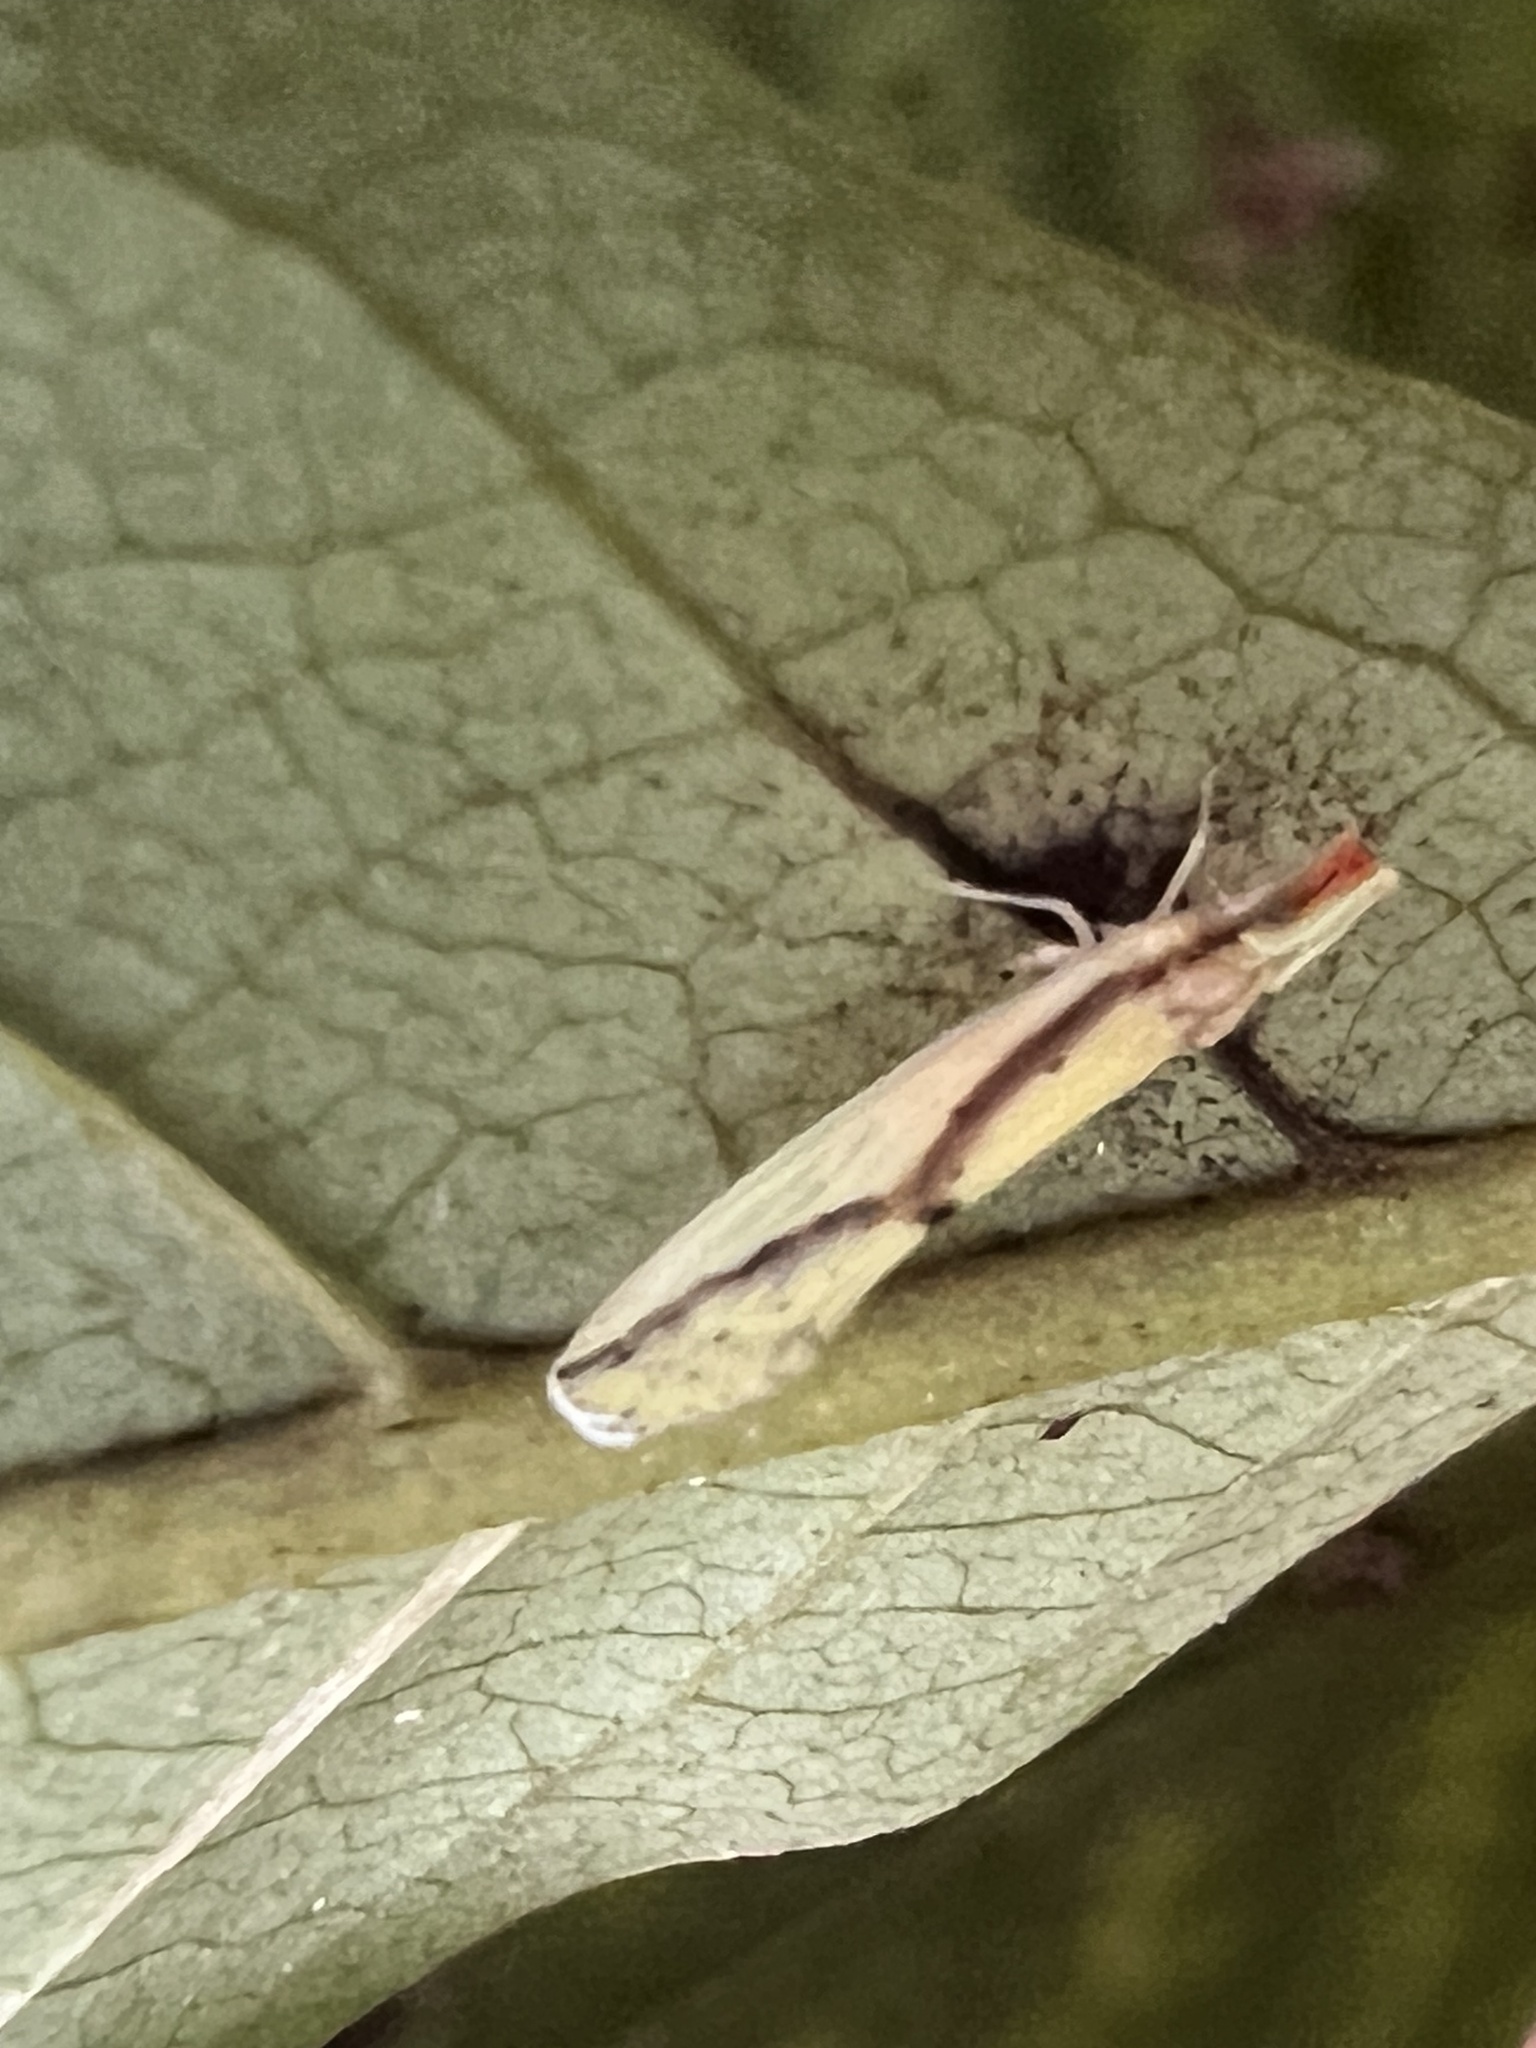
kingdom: Animalia
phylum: Arthropoda
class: Insecta
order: Hemiptera
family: Derbidae
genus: Otiocerus
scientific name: Otiocerus amyotii
